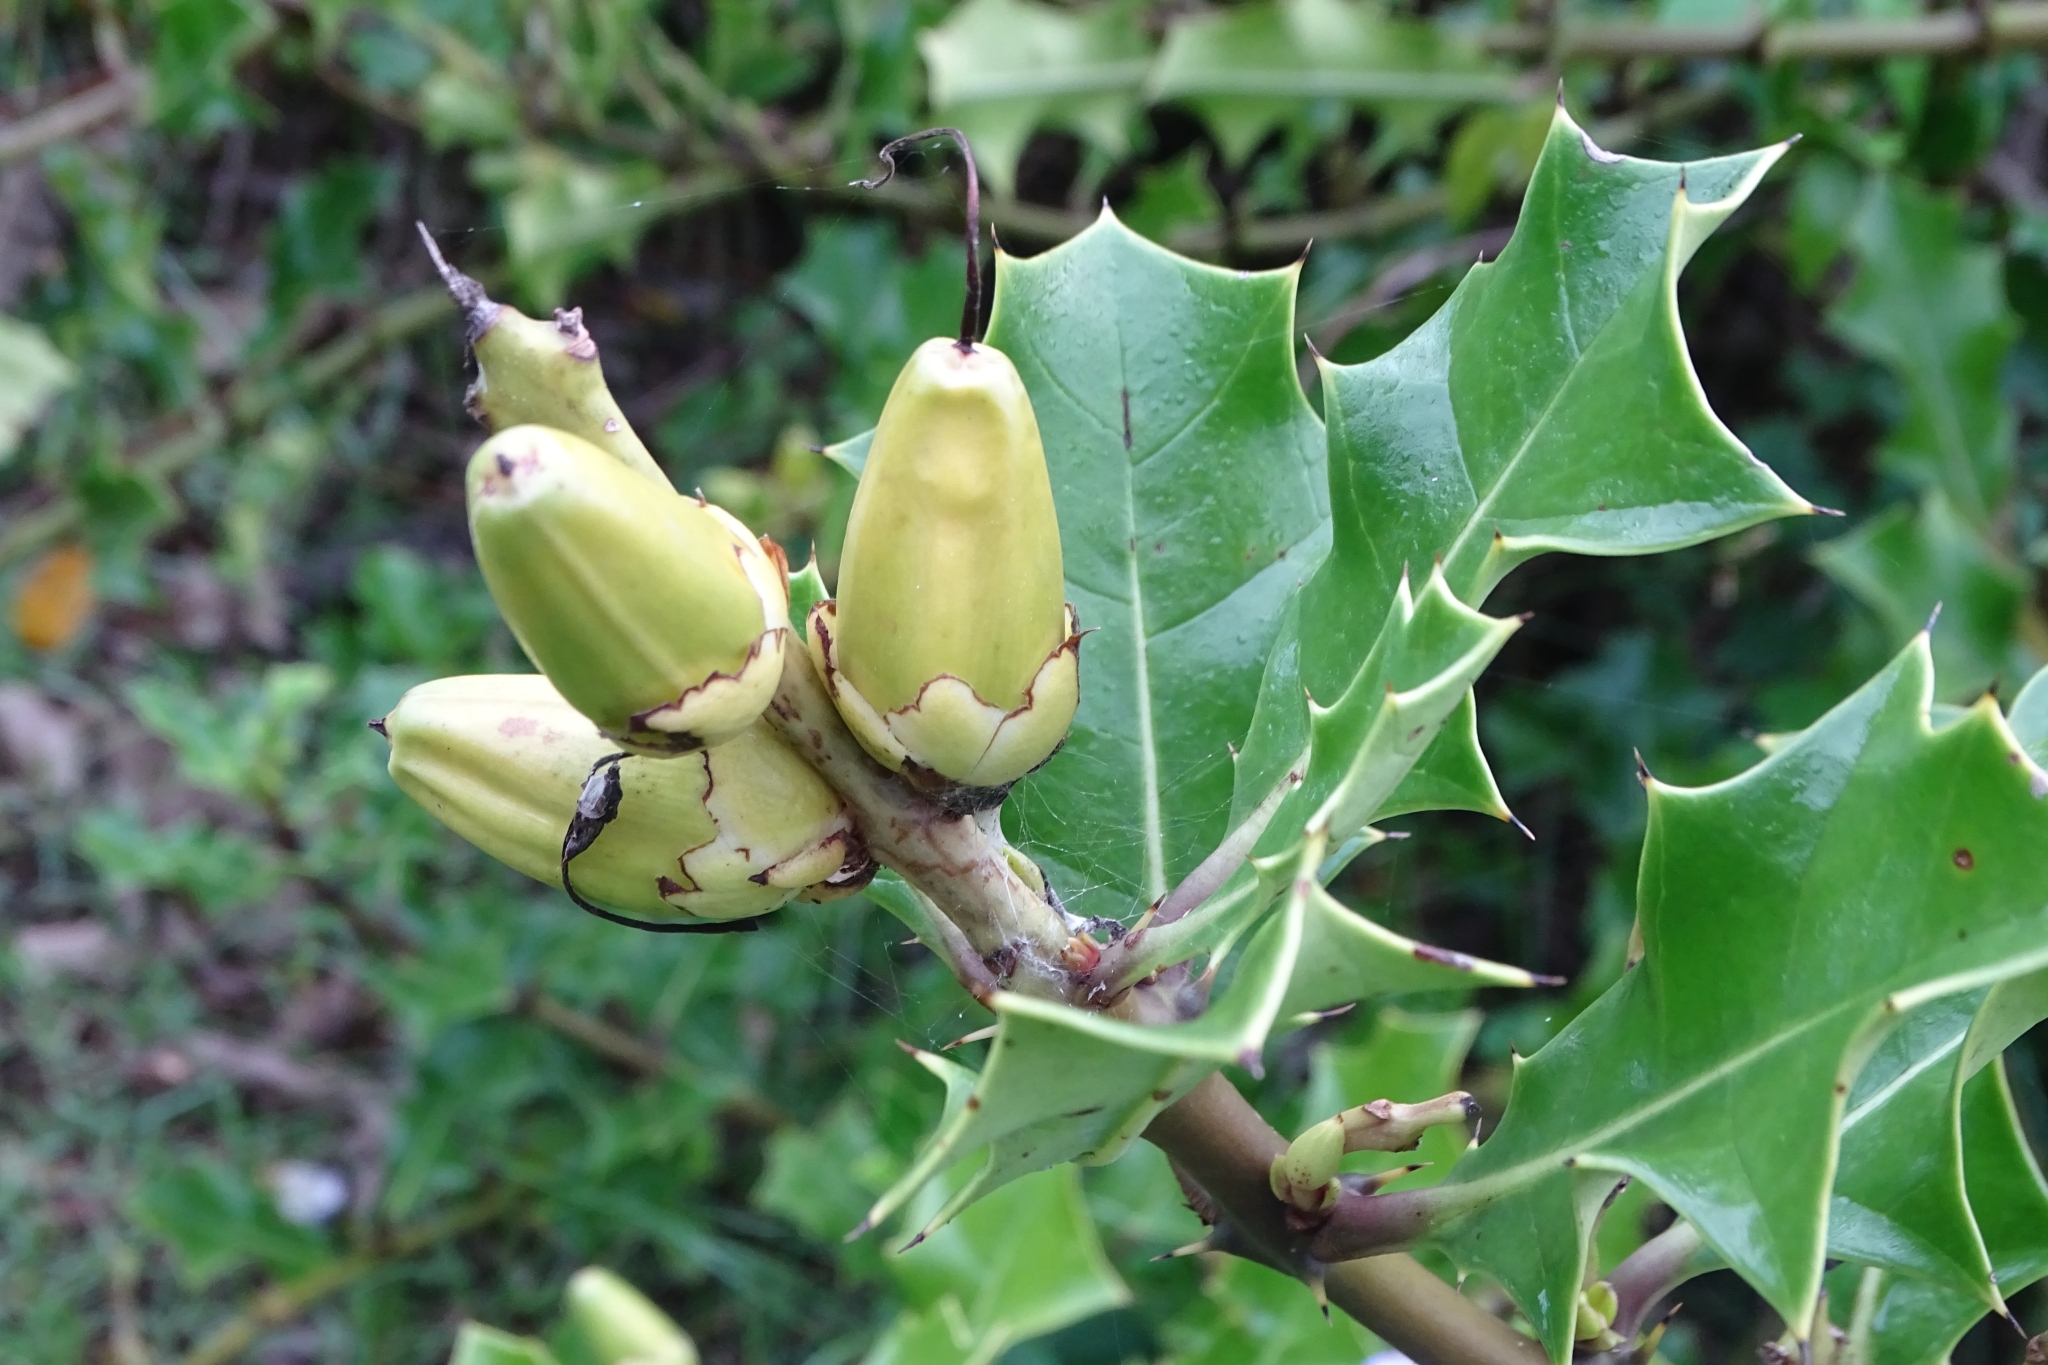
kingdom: Plantae
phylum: Tracheophyta
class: Magnoliopsida
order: Lamiales
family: Acanthaceae
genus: Acanthus
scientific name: Acanthus ilicifolius
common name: Holy mangrove
